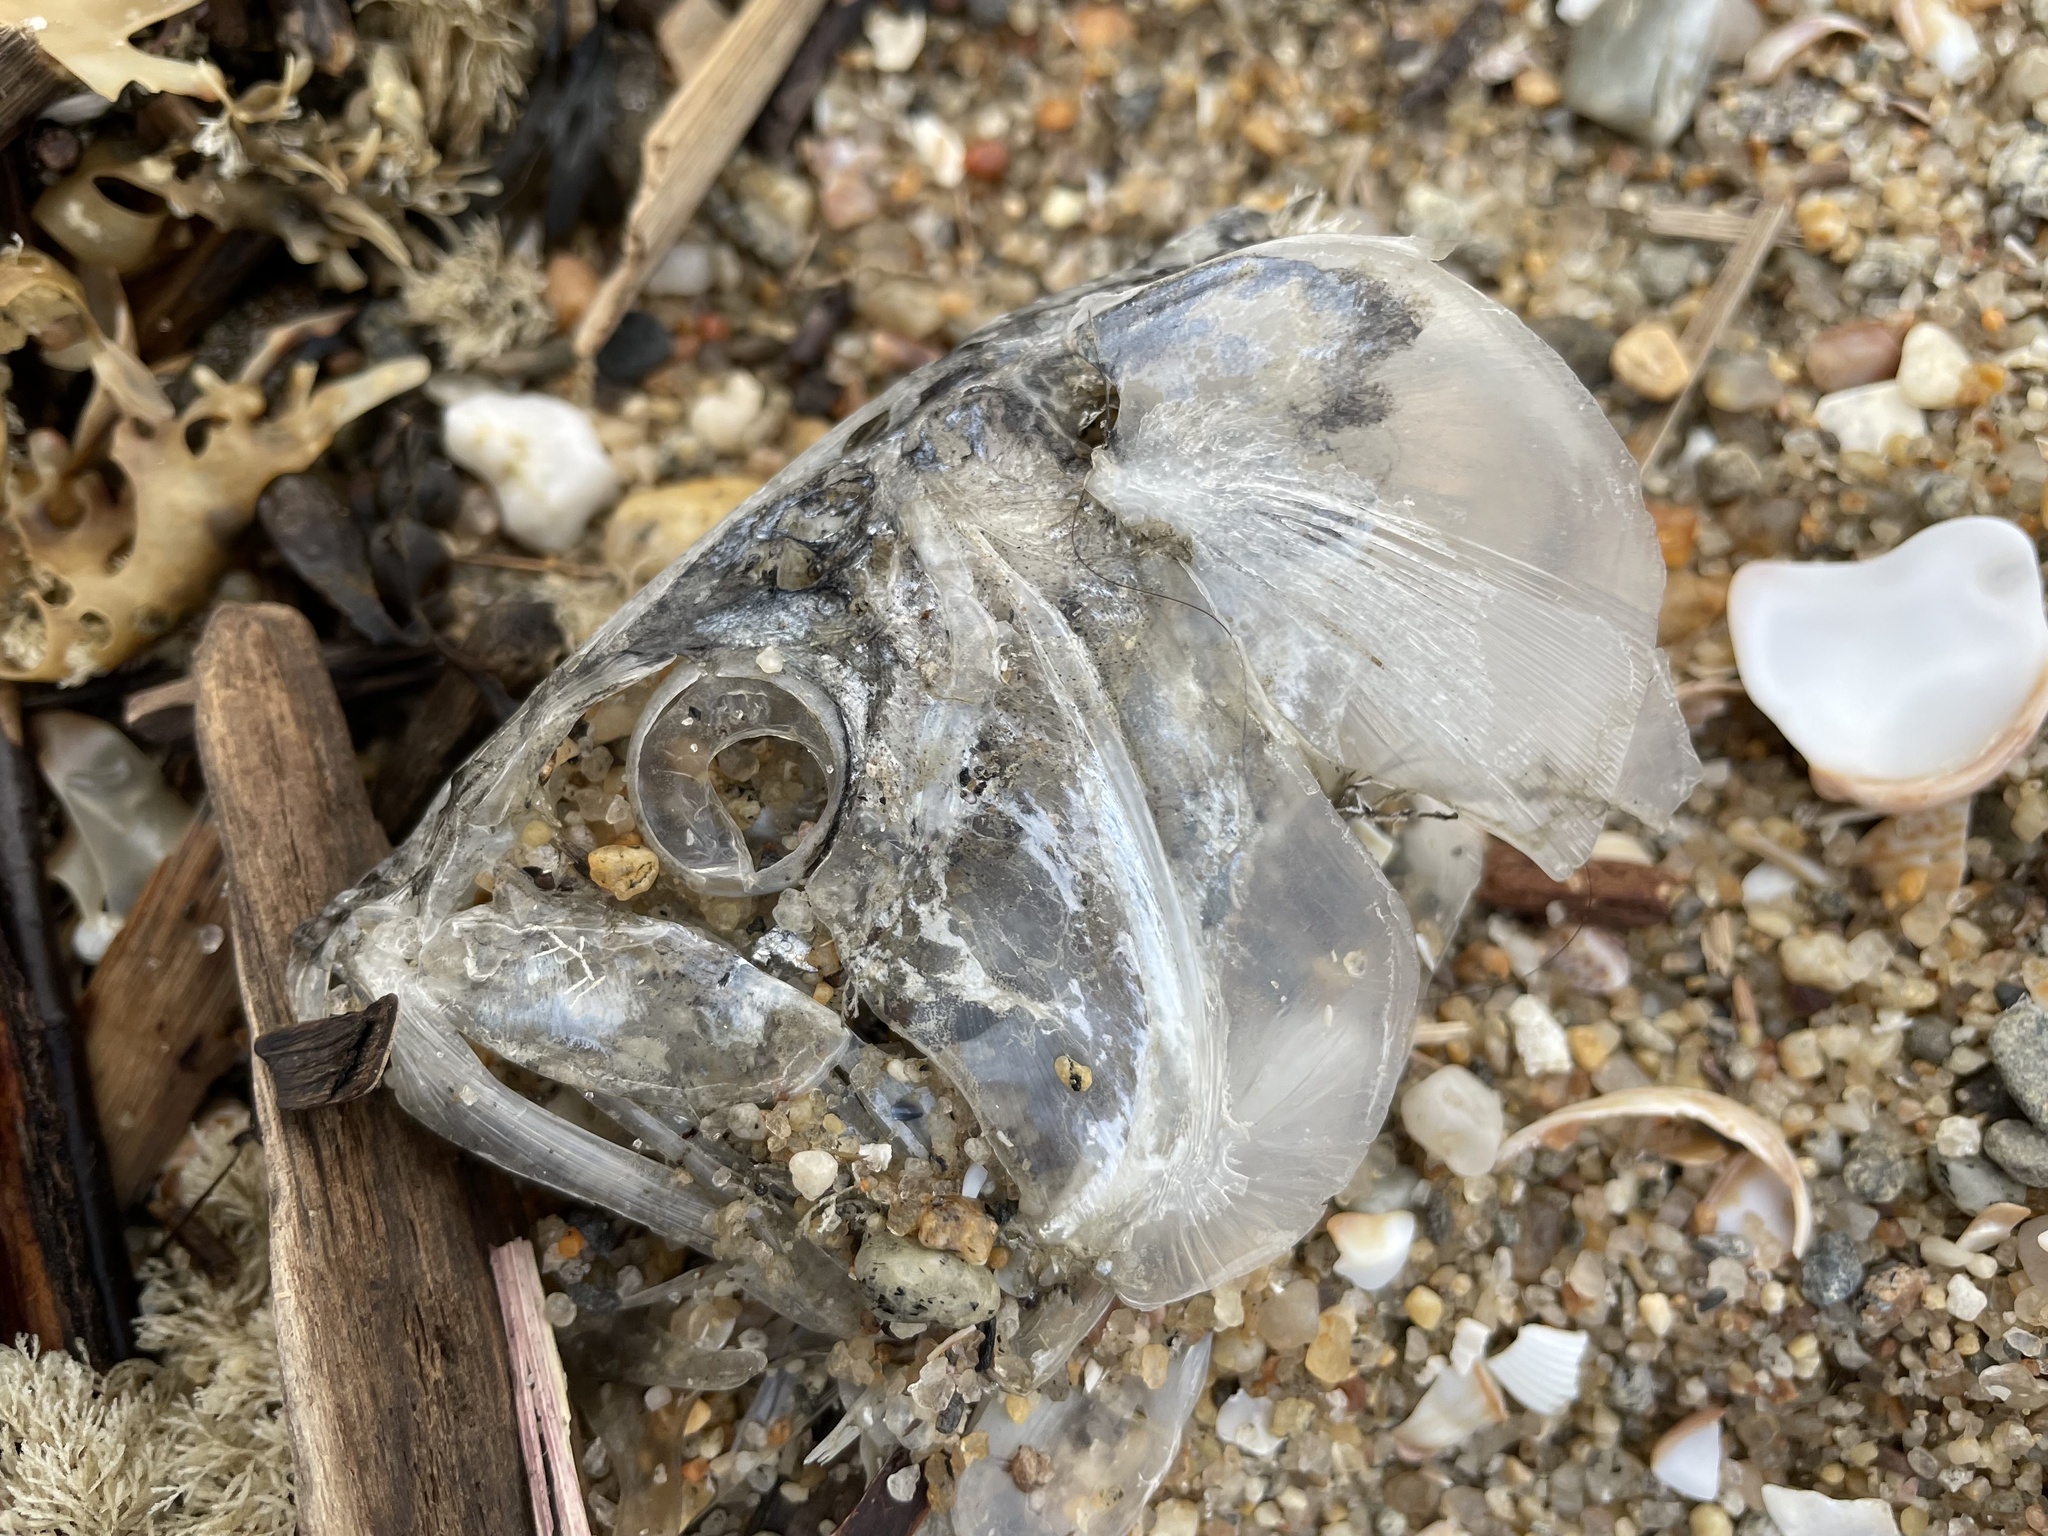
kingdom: Animalia
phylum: Chordata
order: Clupeiformes
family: Clupeidae
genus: Brevoortia
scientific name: Brevoortia tyrannus
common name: Atlantic menhaden
